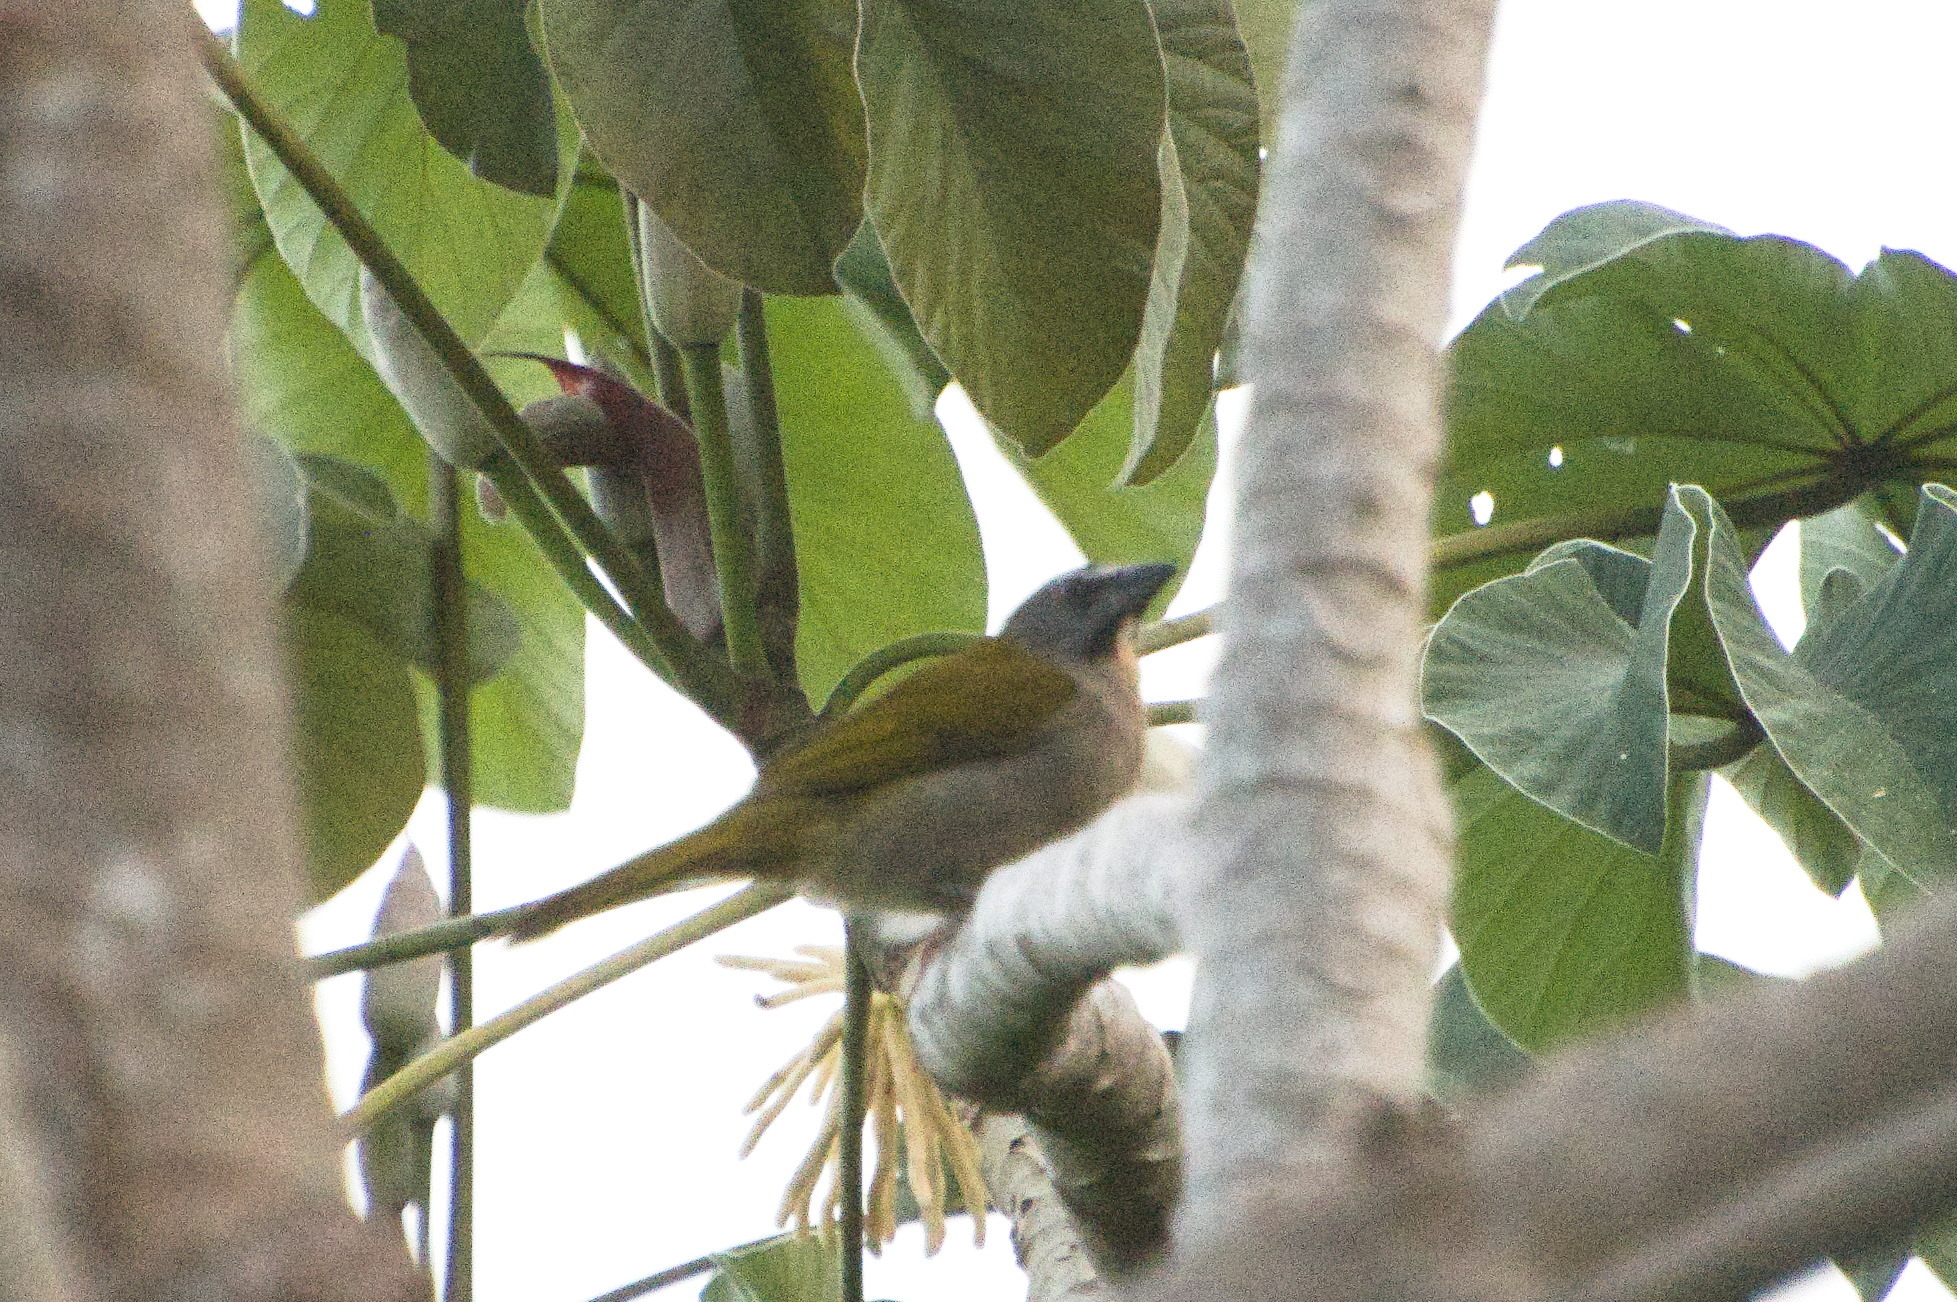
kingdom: Animalia
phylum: Chordata
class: Aves
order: Passeriformes
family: Thraupidae
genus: Saltator
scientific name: Saltator maximus
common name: Buff-throated saltator
